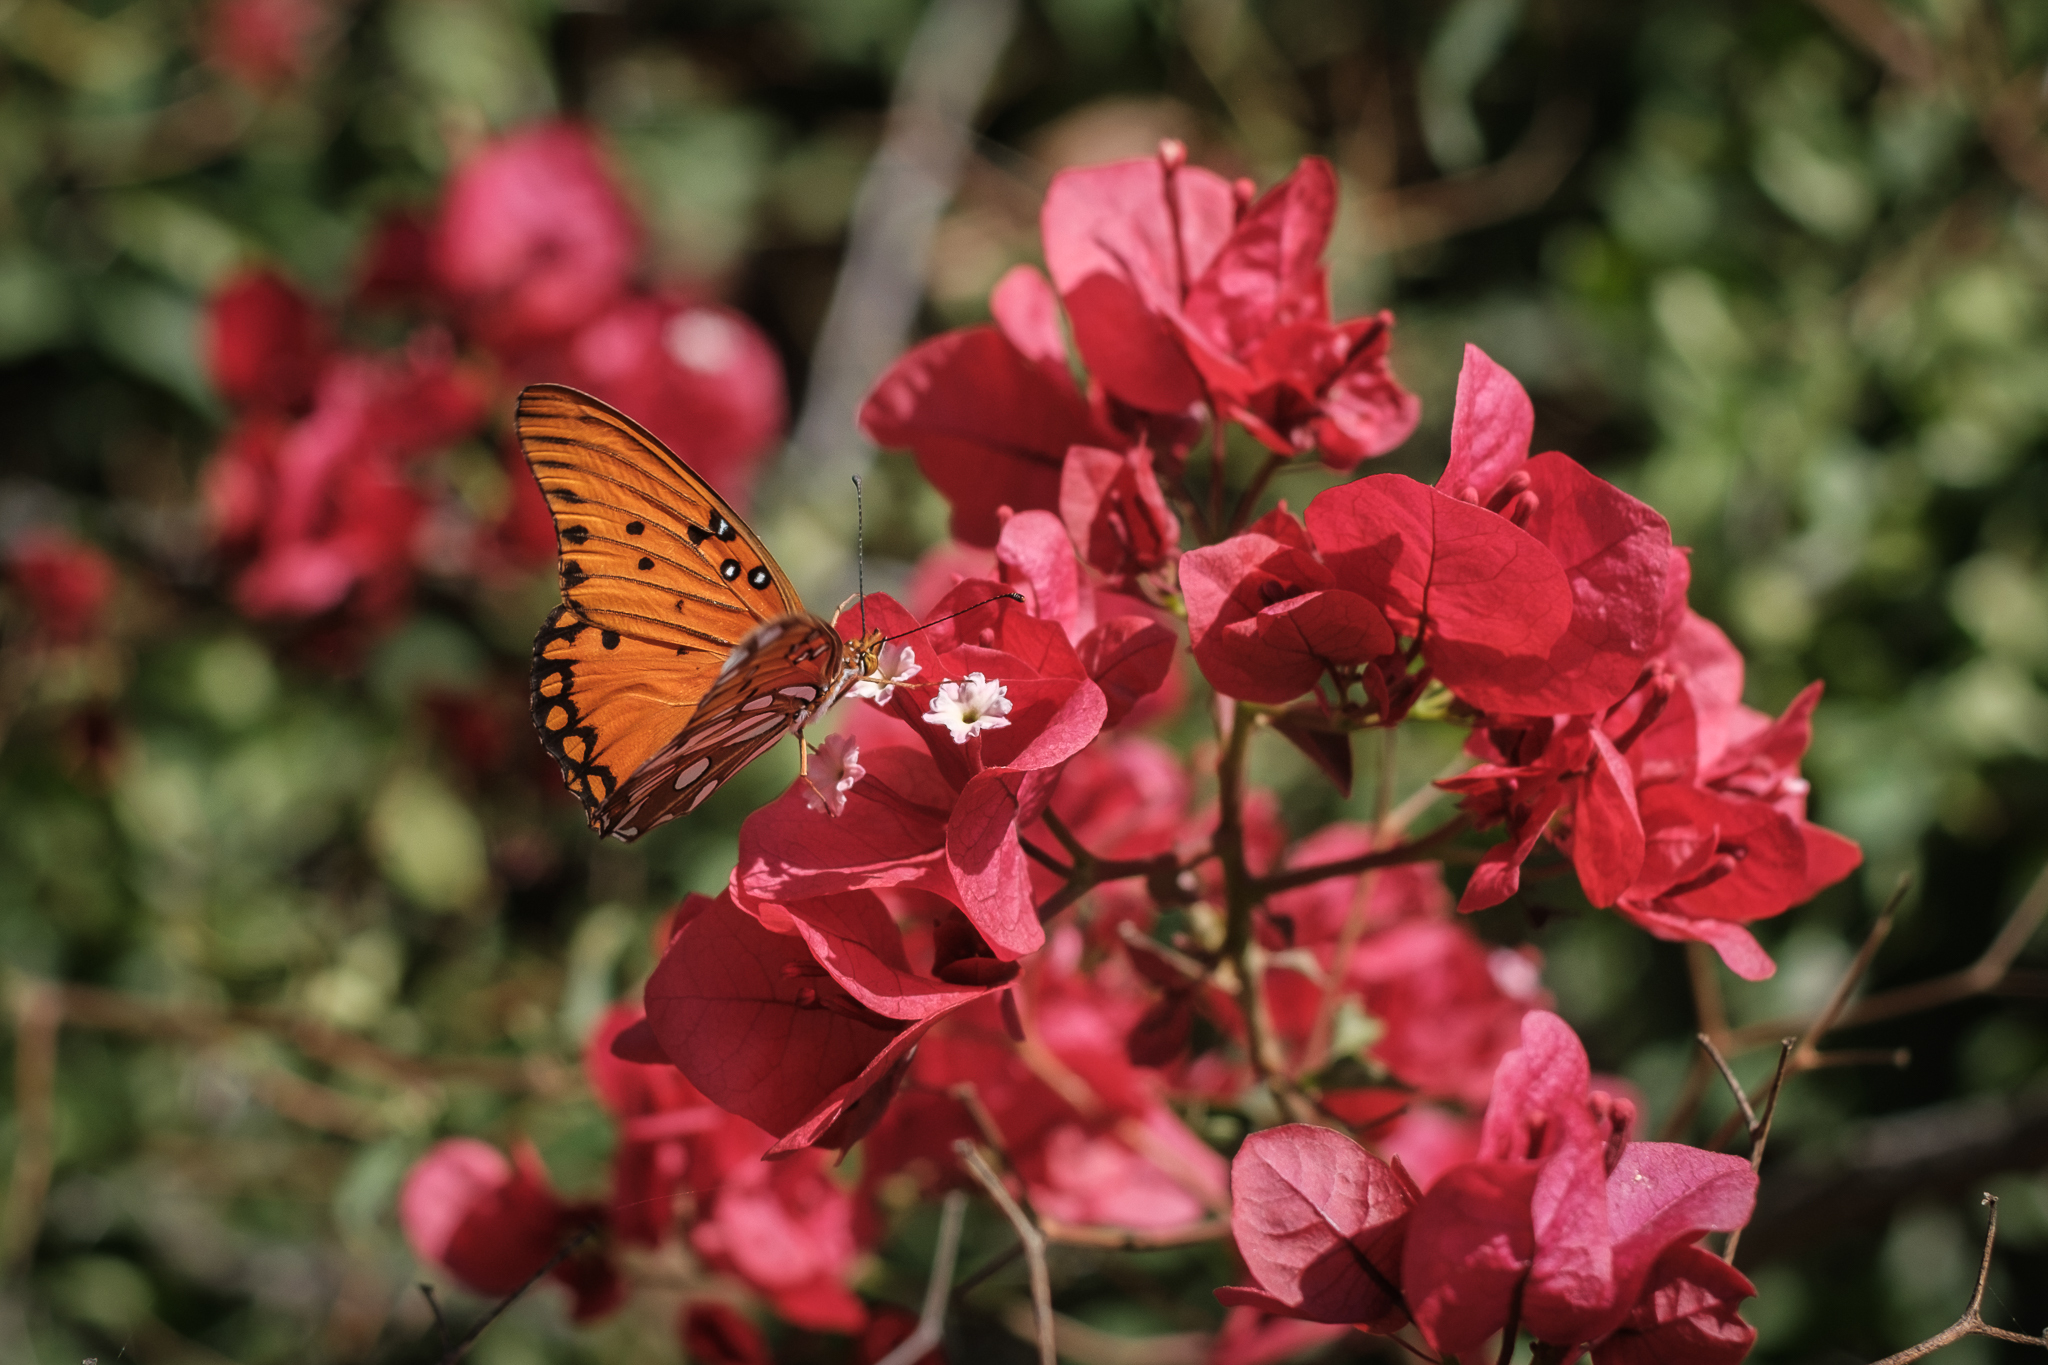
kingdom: Animalia
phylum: Arthropoda
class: Insecta
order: Lepidoptera
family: Nymphalidae
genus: Dione
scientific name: Dione vanillae
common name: Gulf fritillary
